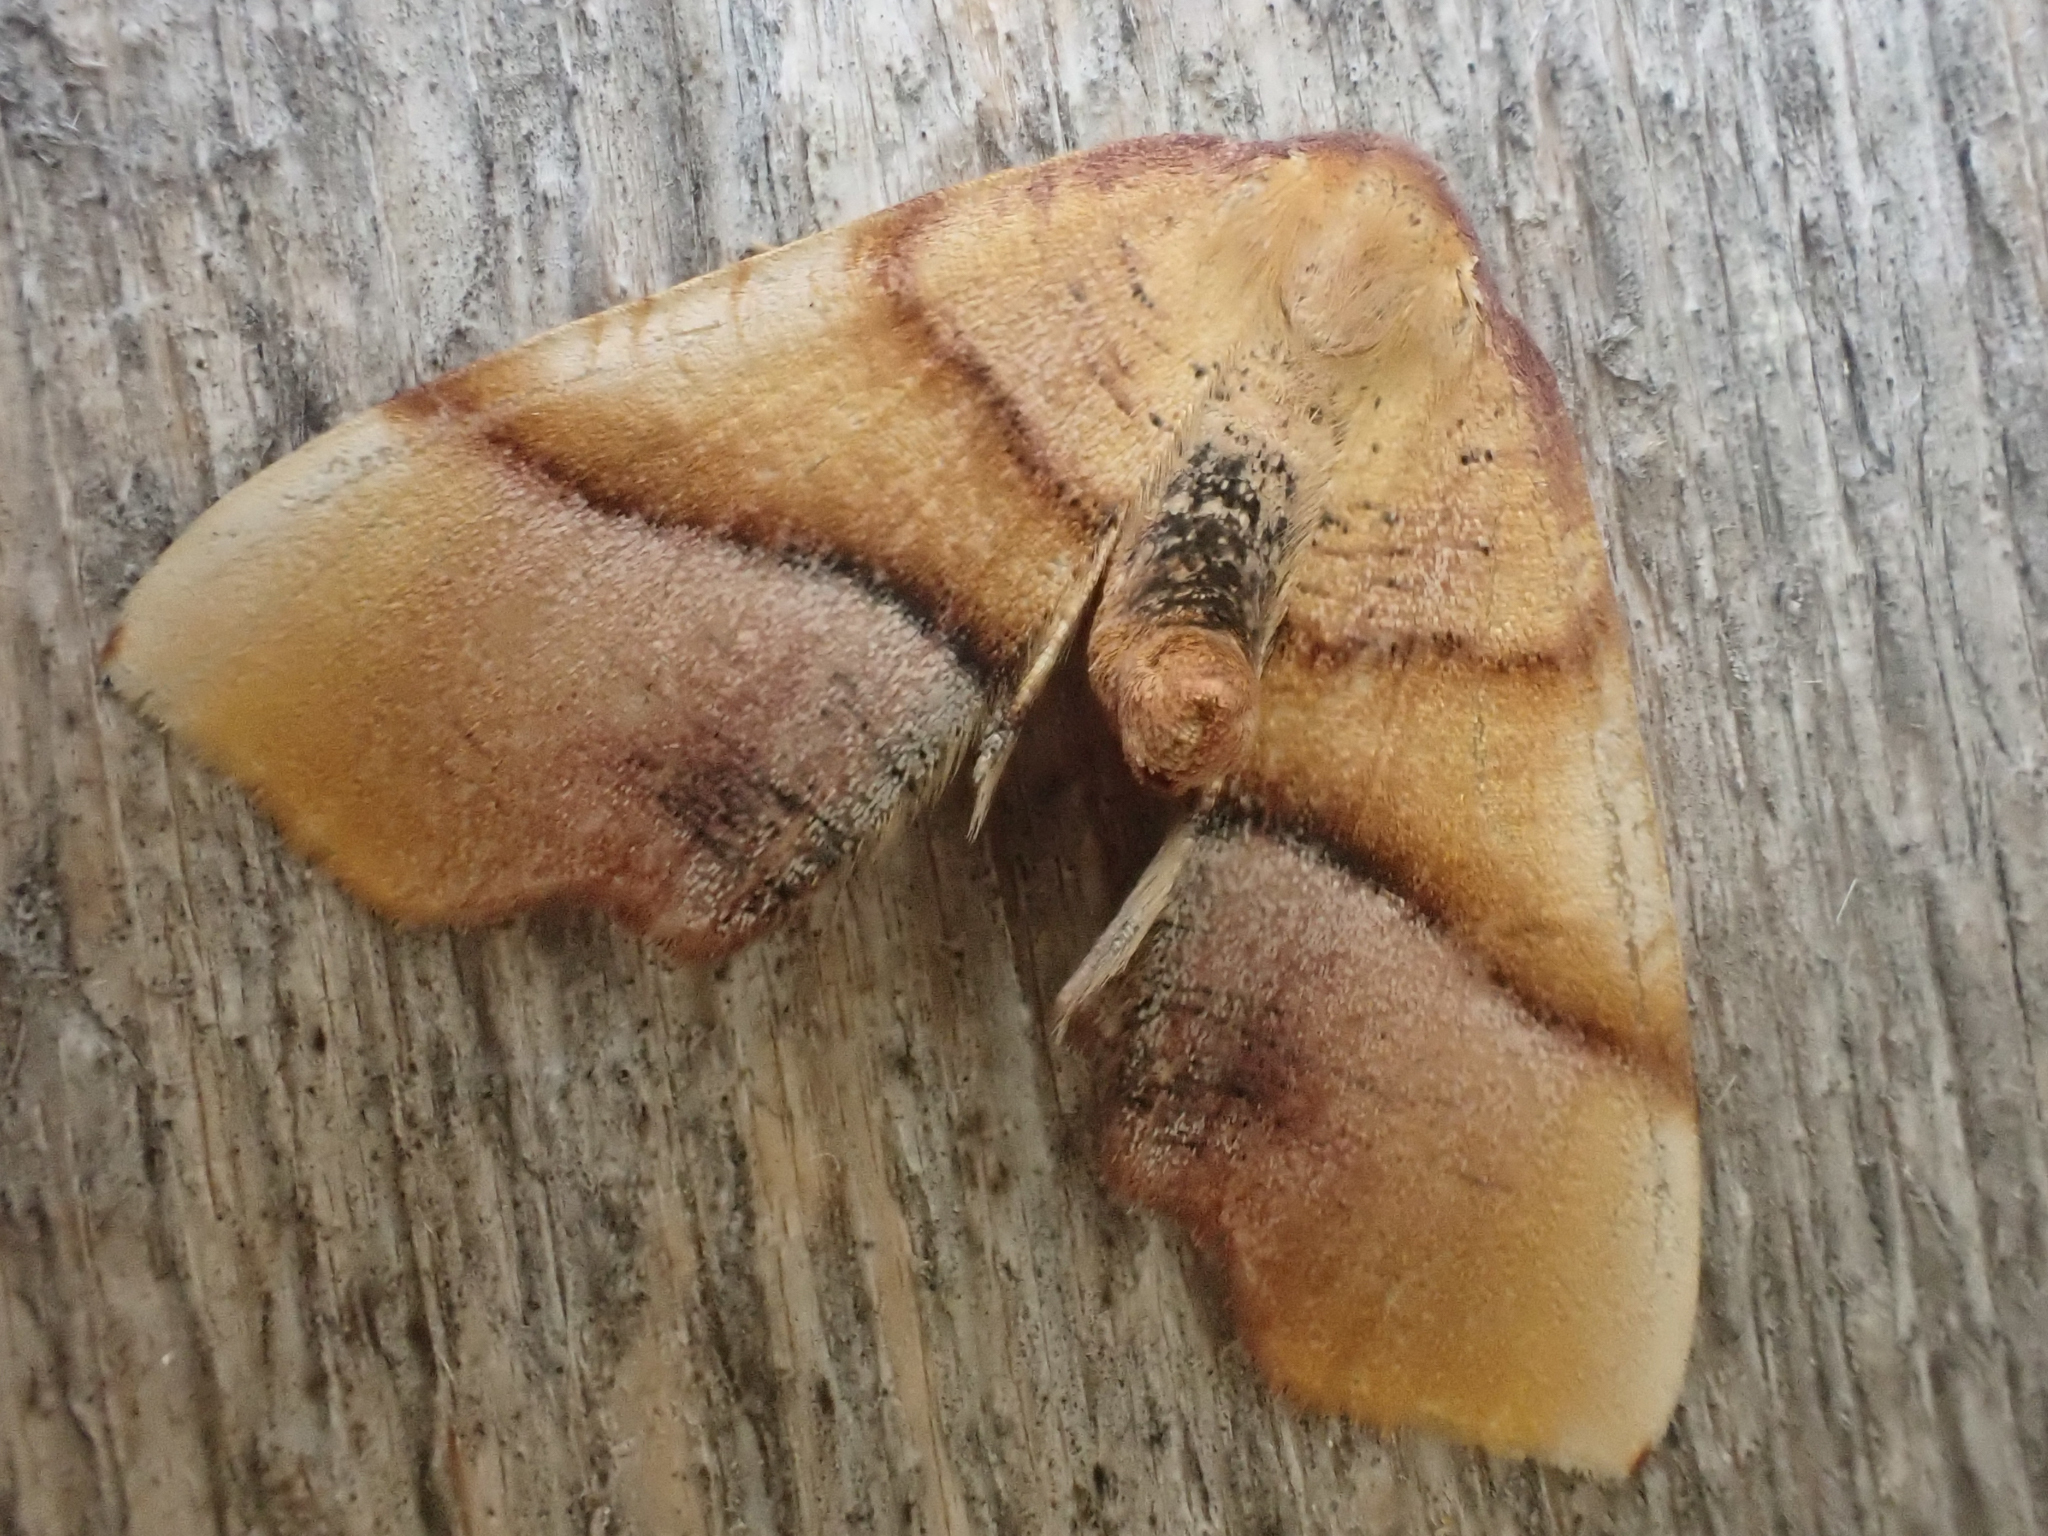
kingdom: Animalia
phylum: Arthropoda
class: Insecta
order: Lepidoptera
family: Geometridae
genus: Plagodis
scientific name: Plagodis phlogosaria
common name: Straight-lined plagodis
